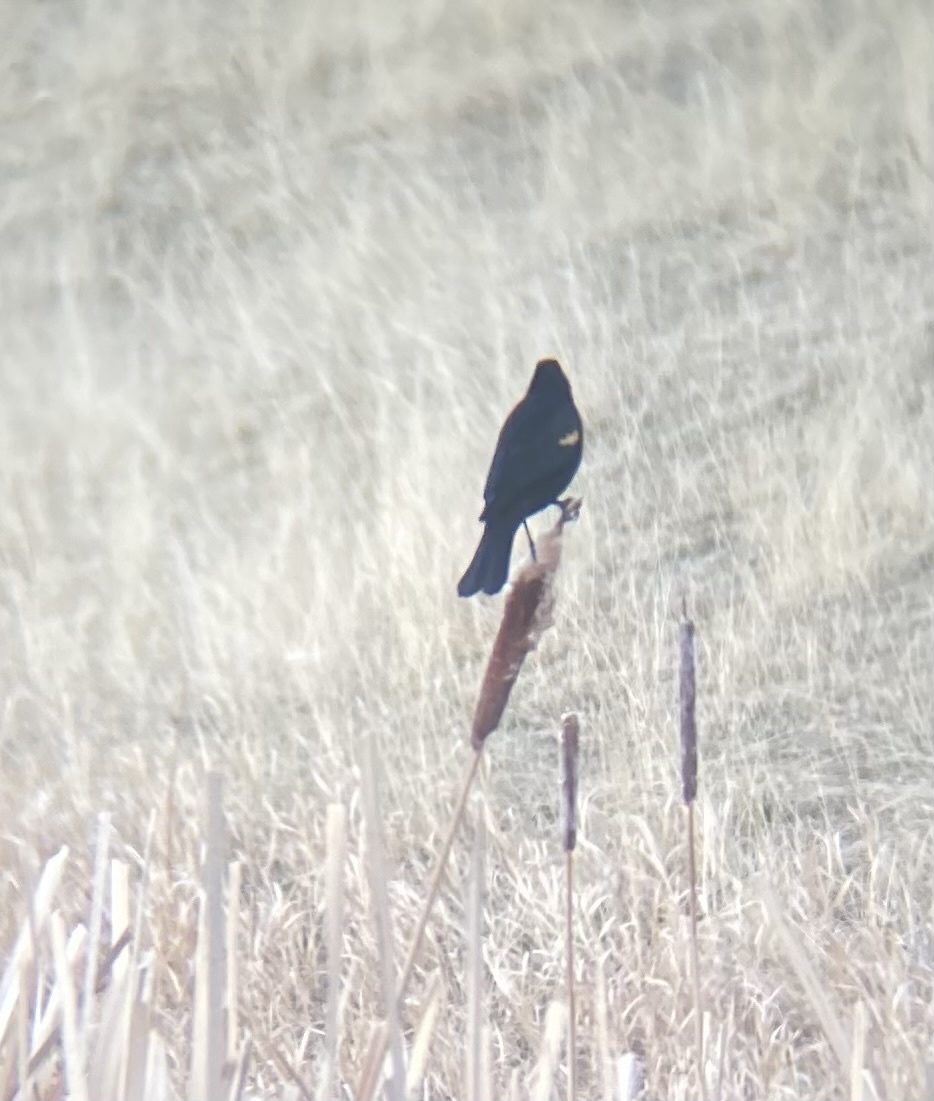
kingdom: Animalia
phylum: Chordata
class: Aves
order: Passeriformes
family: Icteridae
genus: Agelaius
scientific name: Agelaius phoeniceus
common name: Red-winged blackbird
